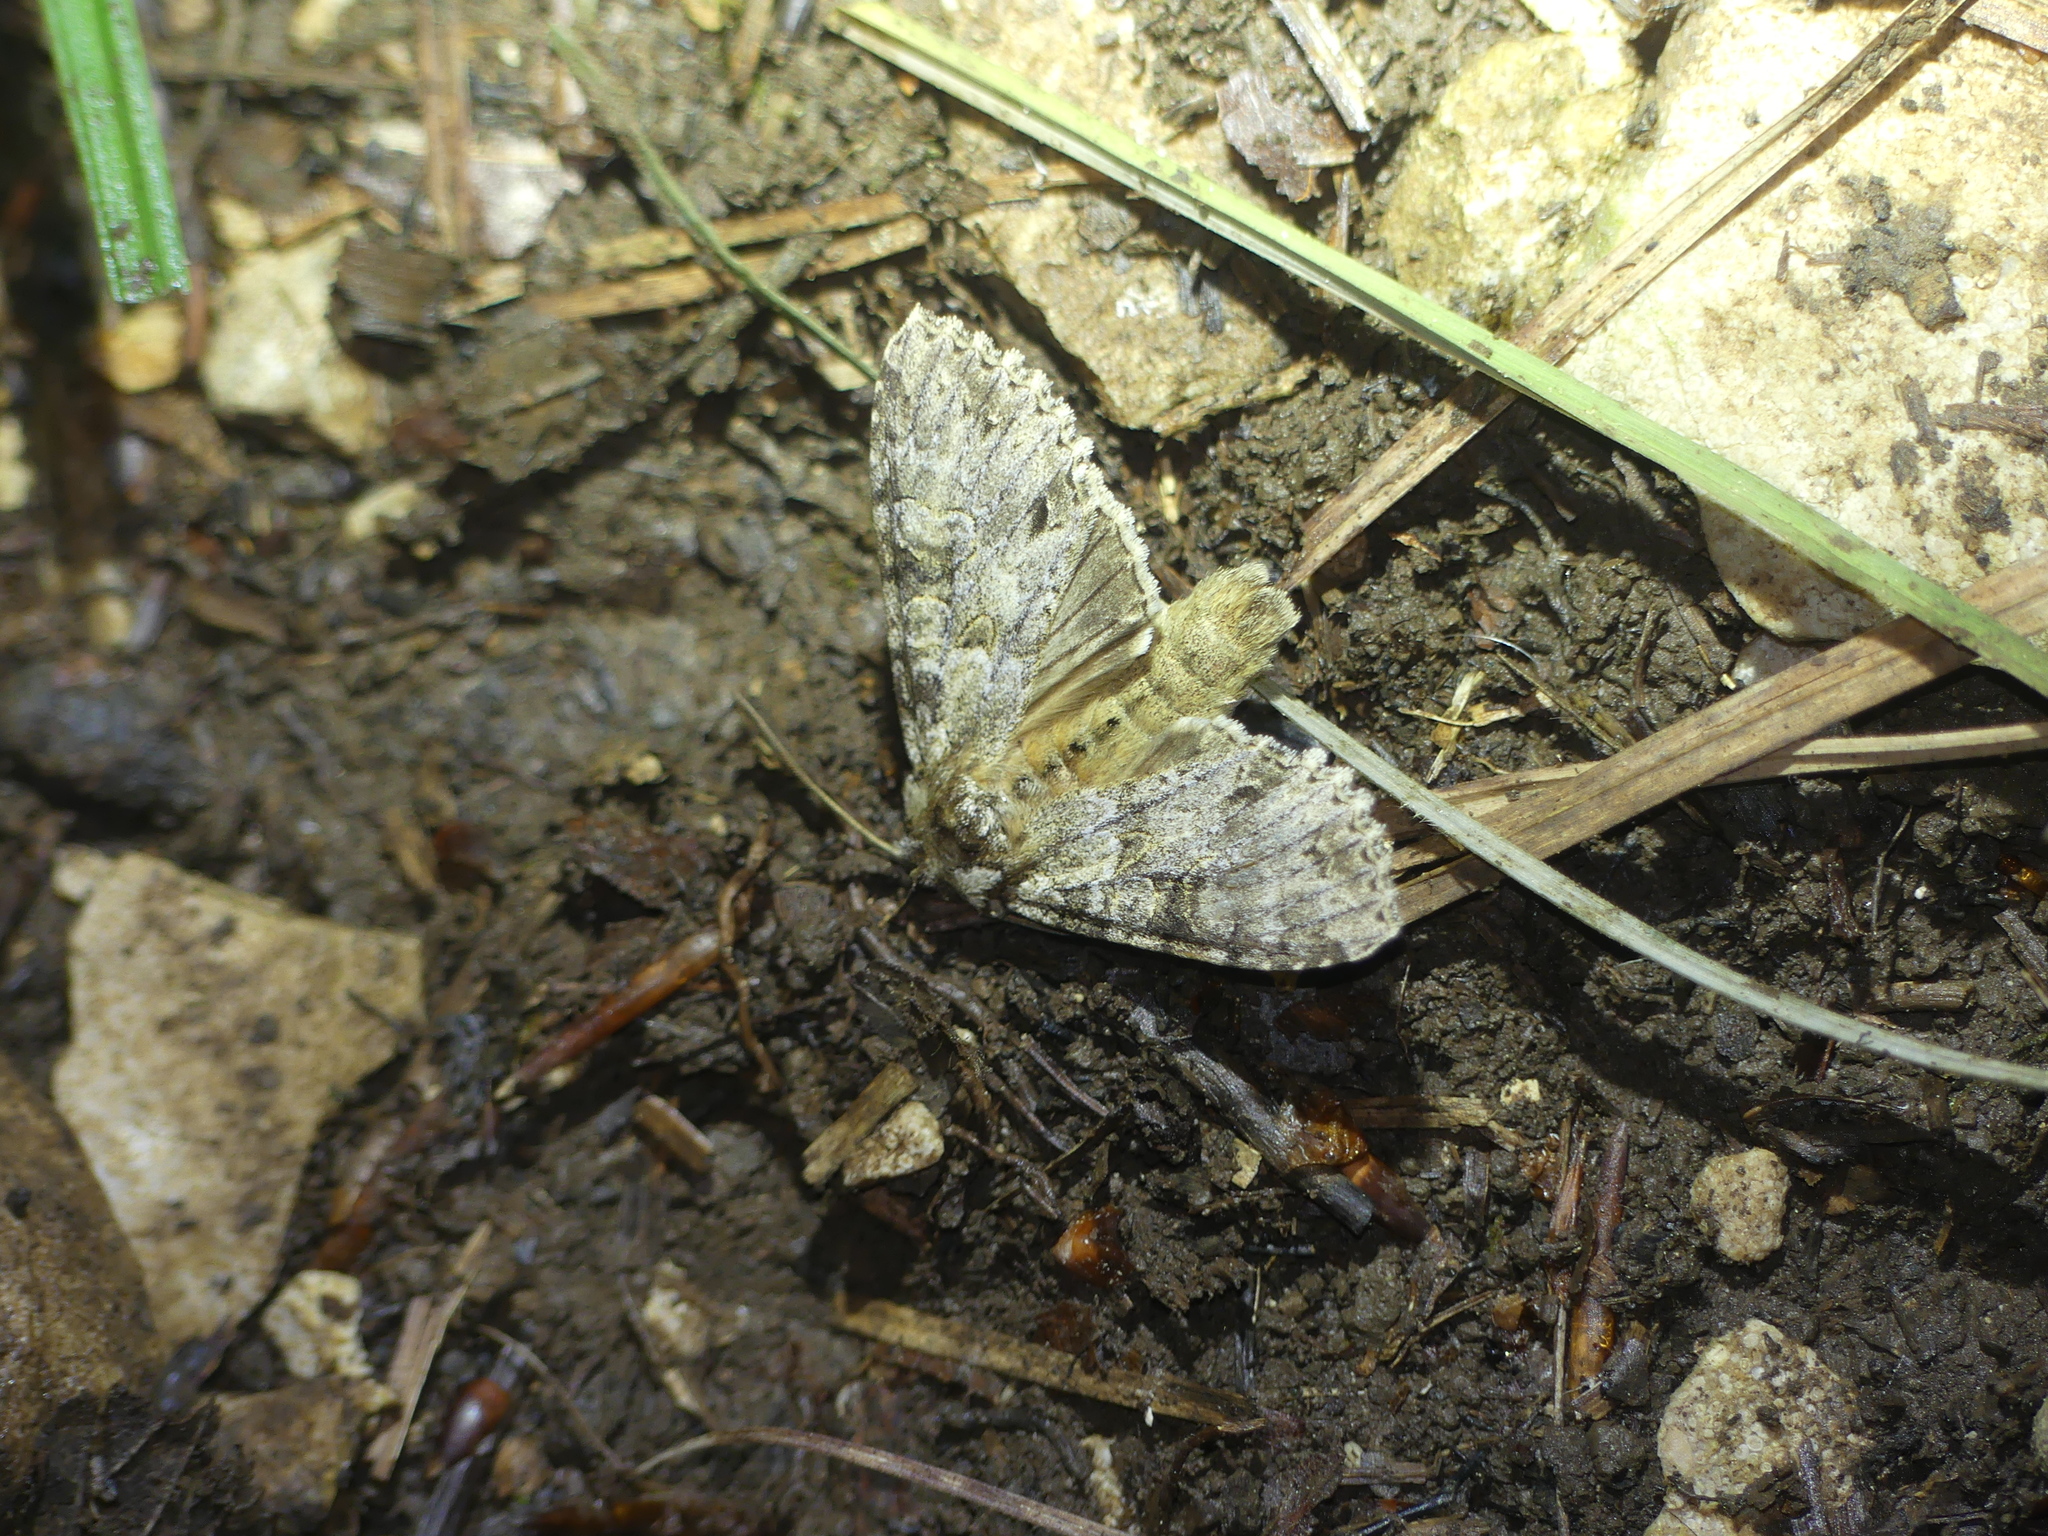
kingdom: Animalia
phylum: Arthropoda
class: Insecta
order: Lepidoptera
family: Noctuidae
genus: Polia
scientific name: Polia nebulosa
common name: Grey arches
